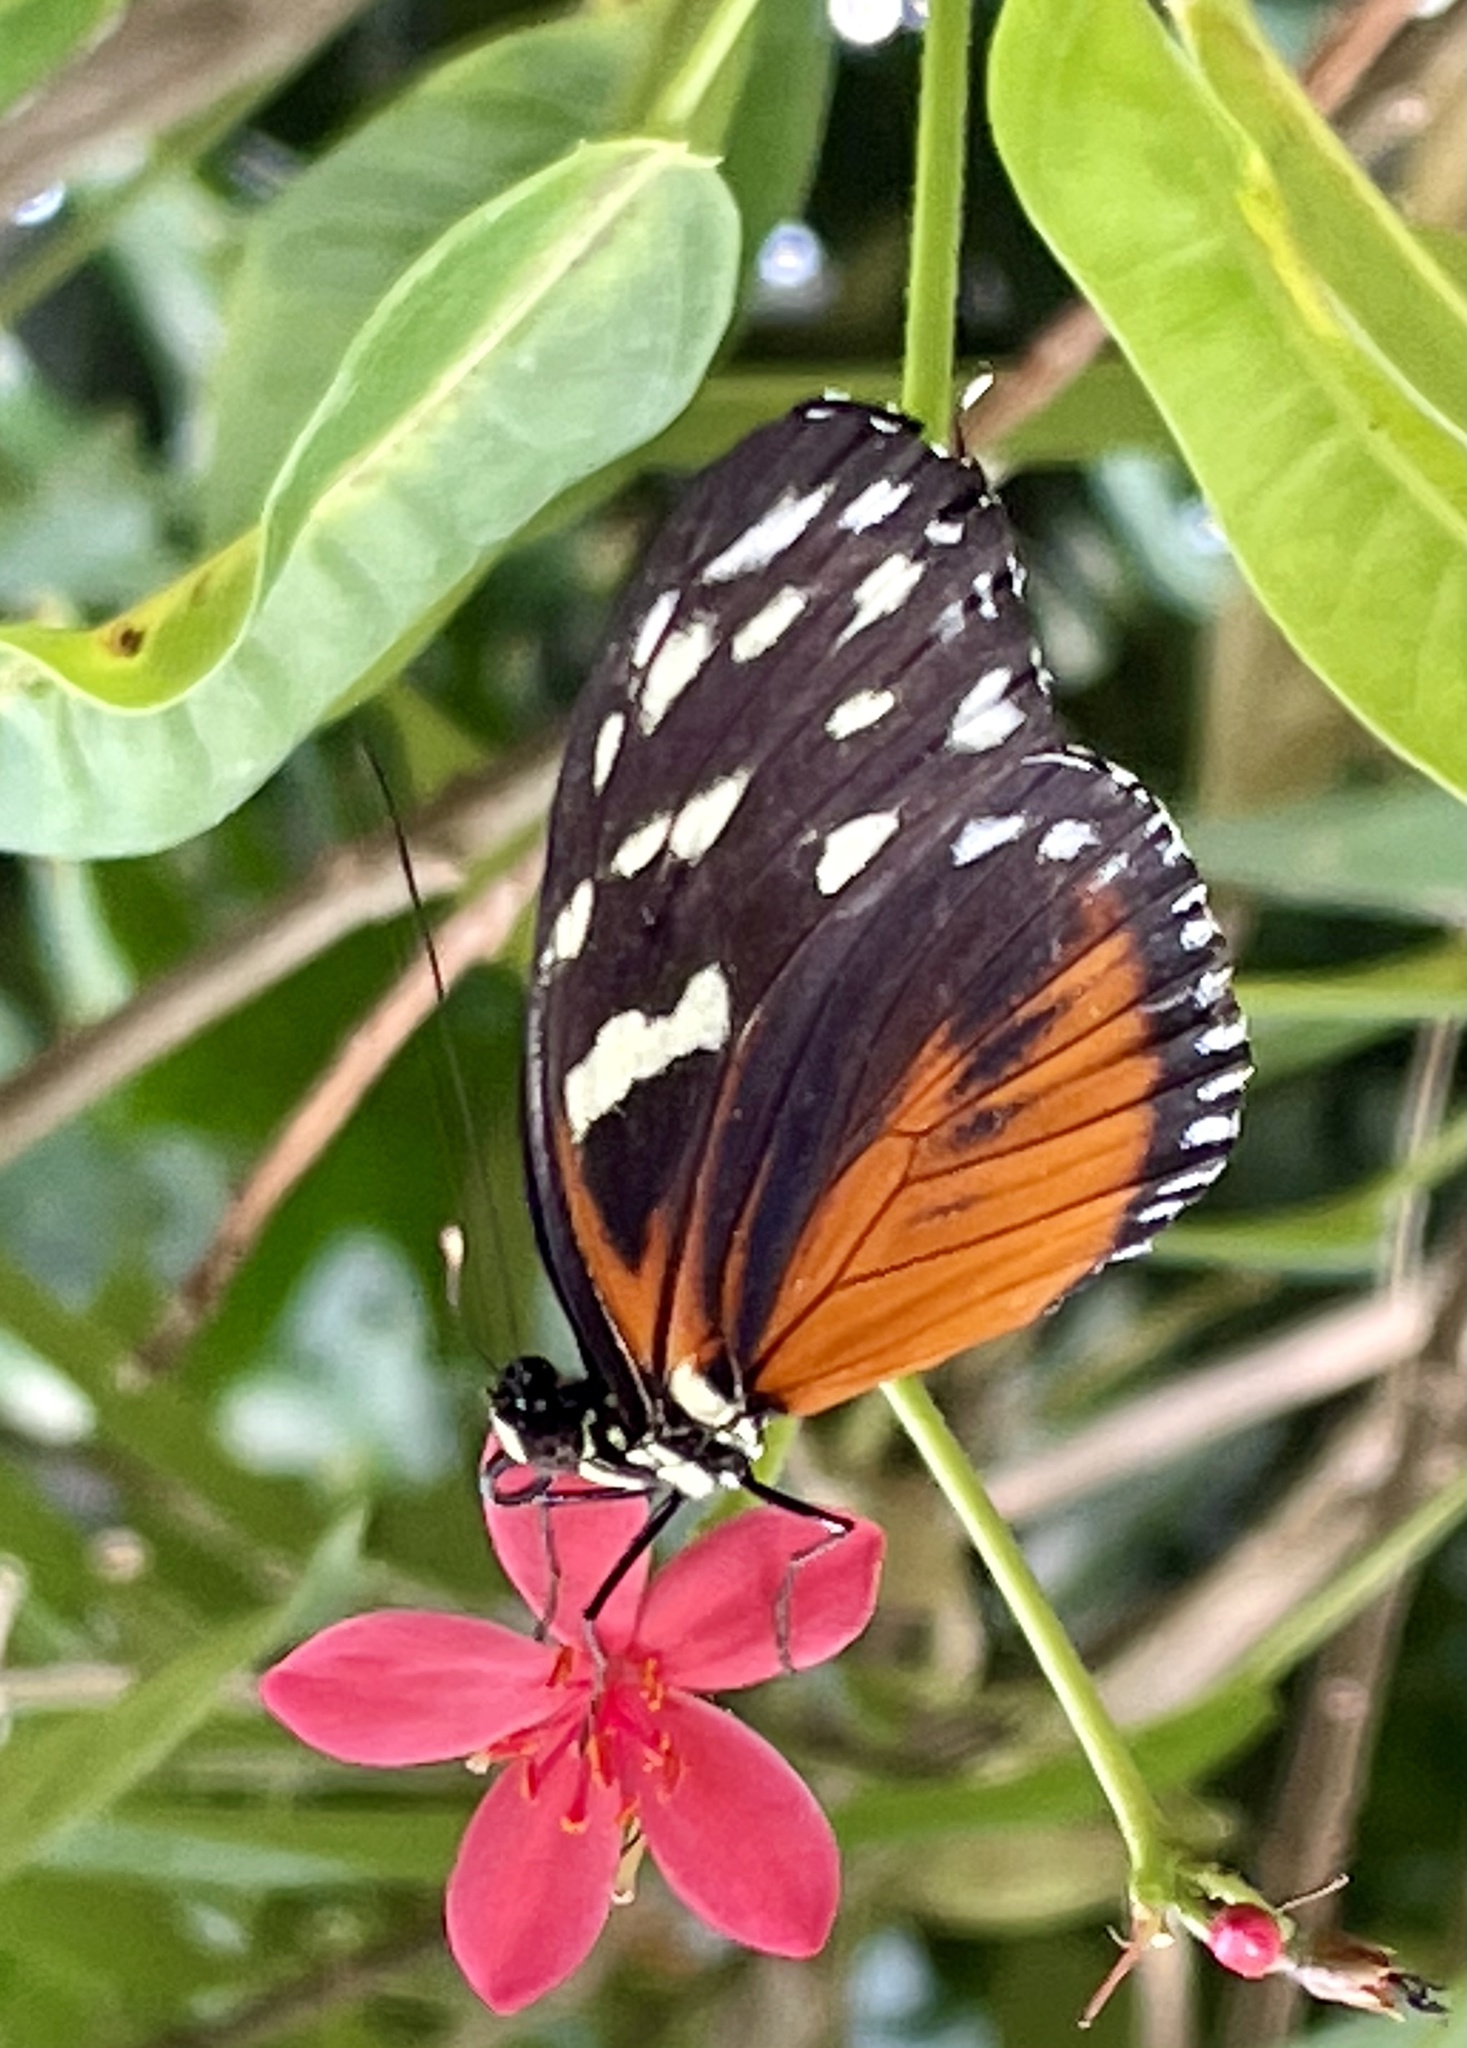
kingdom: Animalia
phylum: Arthropoda
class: Insecta
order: Lepidoptera
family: Nymphalidae
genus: Heliconius
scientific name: Heliconius hecale
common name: Tiger longwing
